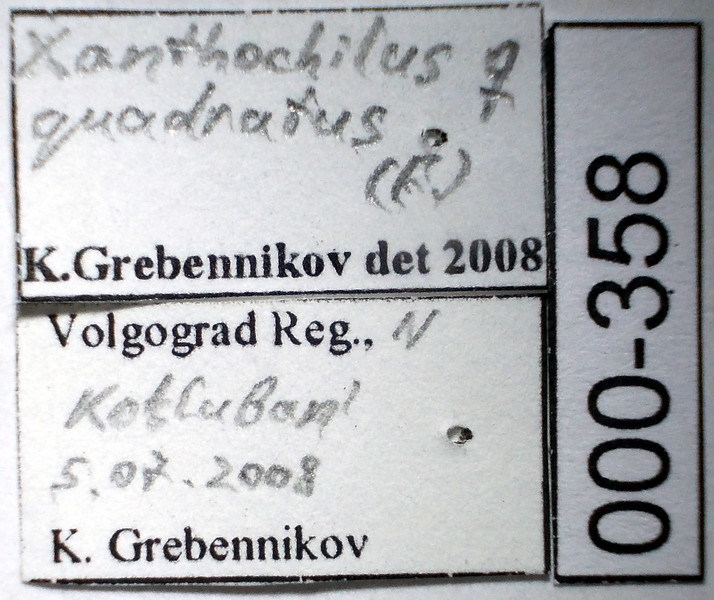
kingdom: Animalia
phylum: Arthropoda
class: Insecta
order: Hemiptera
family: Rhyparochromidae
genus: Xanthochilus
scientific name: Xanthochilus quadratus
